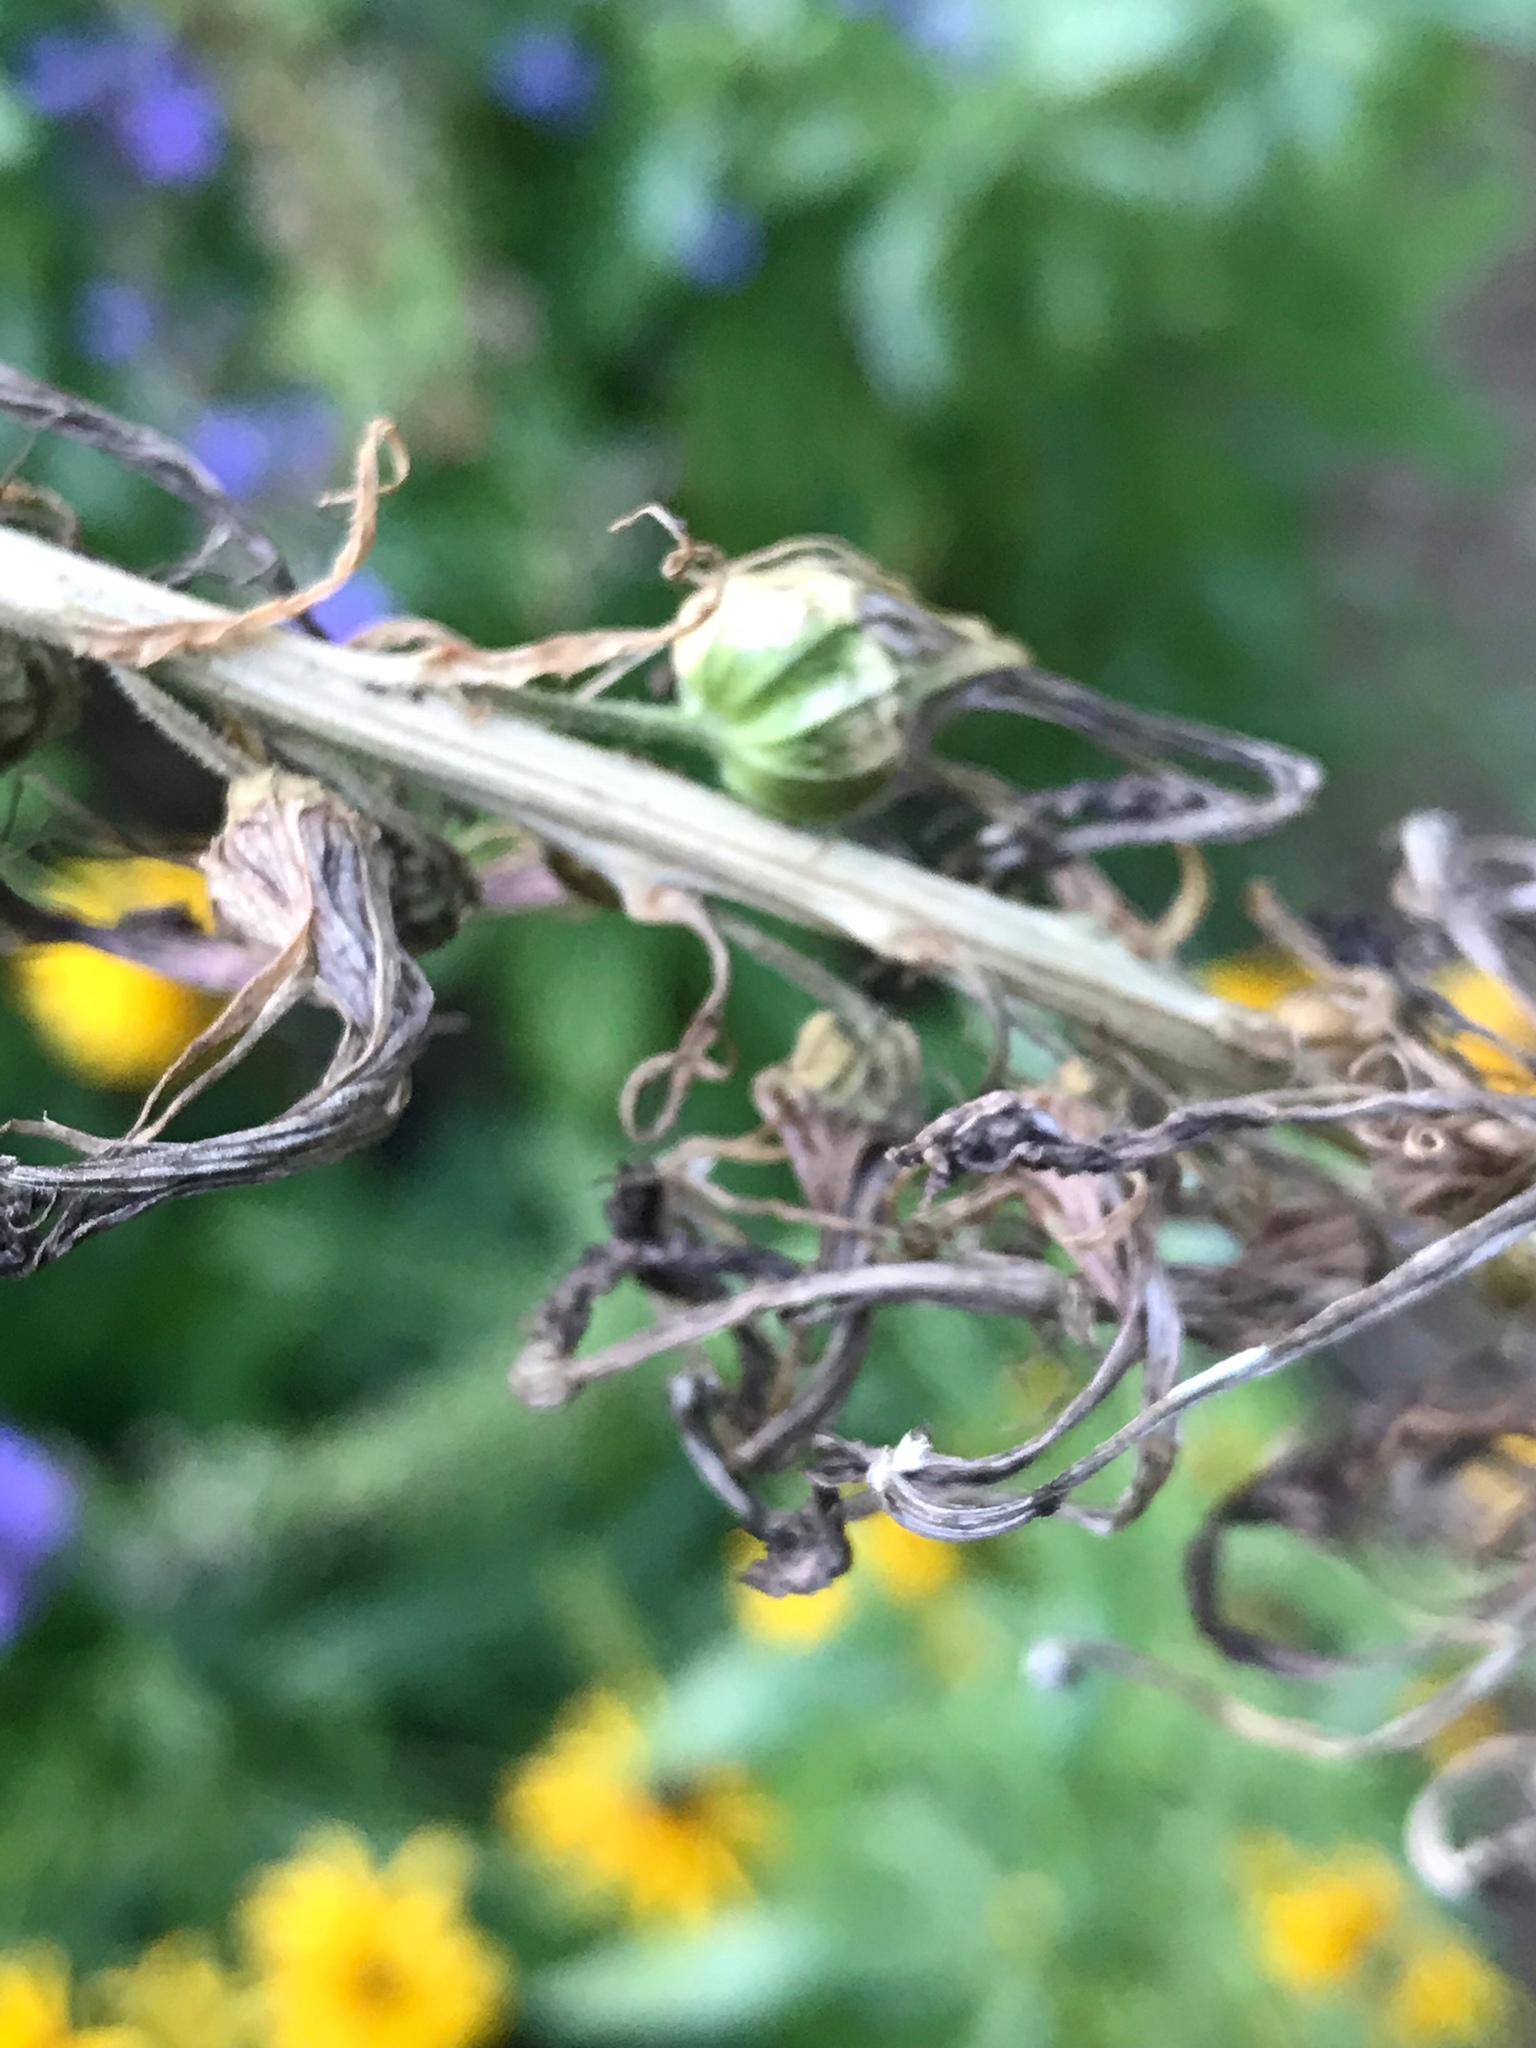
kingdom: Plantae
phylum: Tracheophyta
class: Magnoliopsida
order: Asterales
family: Campanulaceae
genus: Lobelia
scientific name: Lobelia cardinalis
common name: Cardinal flower
